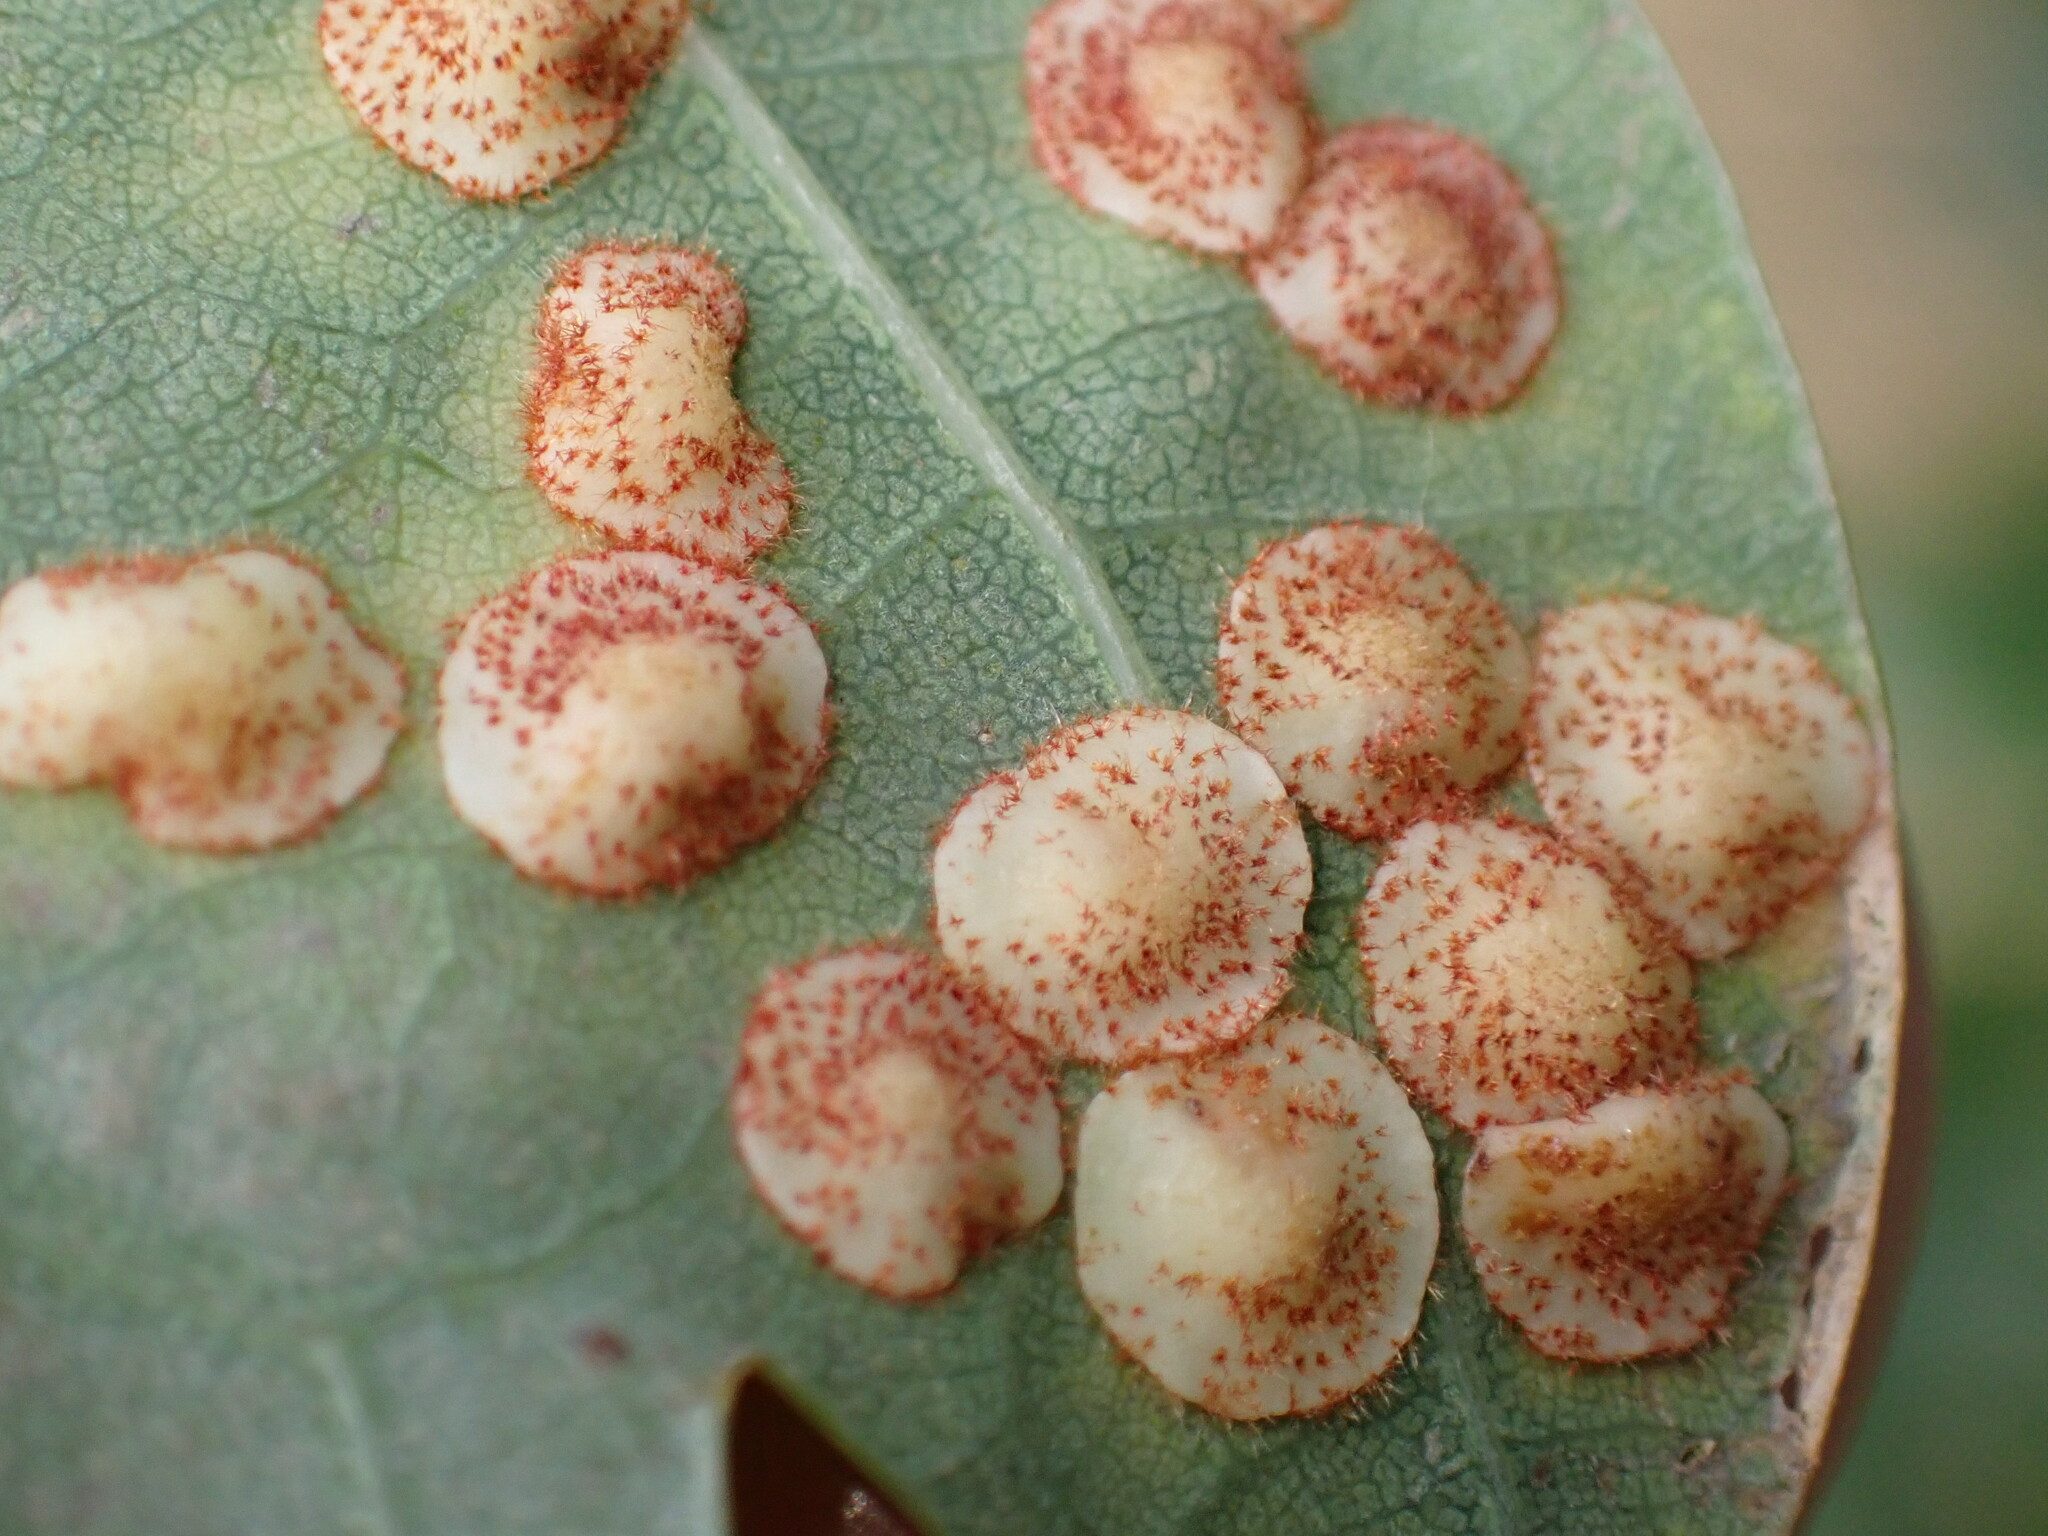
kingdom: Animalia
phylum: Arthropoda
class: Insecta
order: Hymenoptera
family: Cynipidae
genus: Neuroterus
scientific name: Neuroterus quercusbaccarum
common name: Common spangle gall
